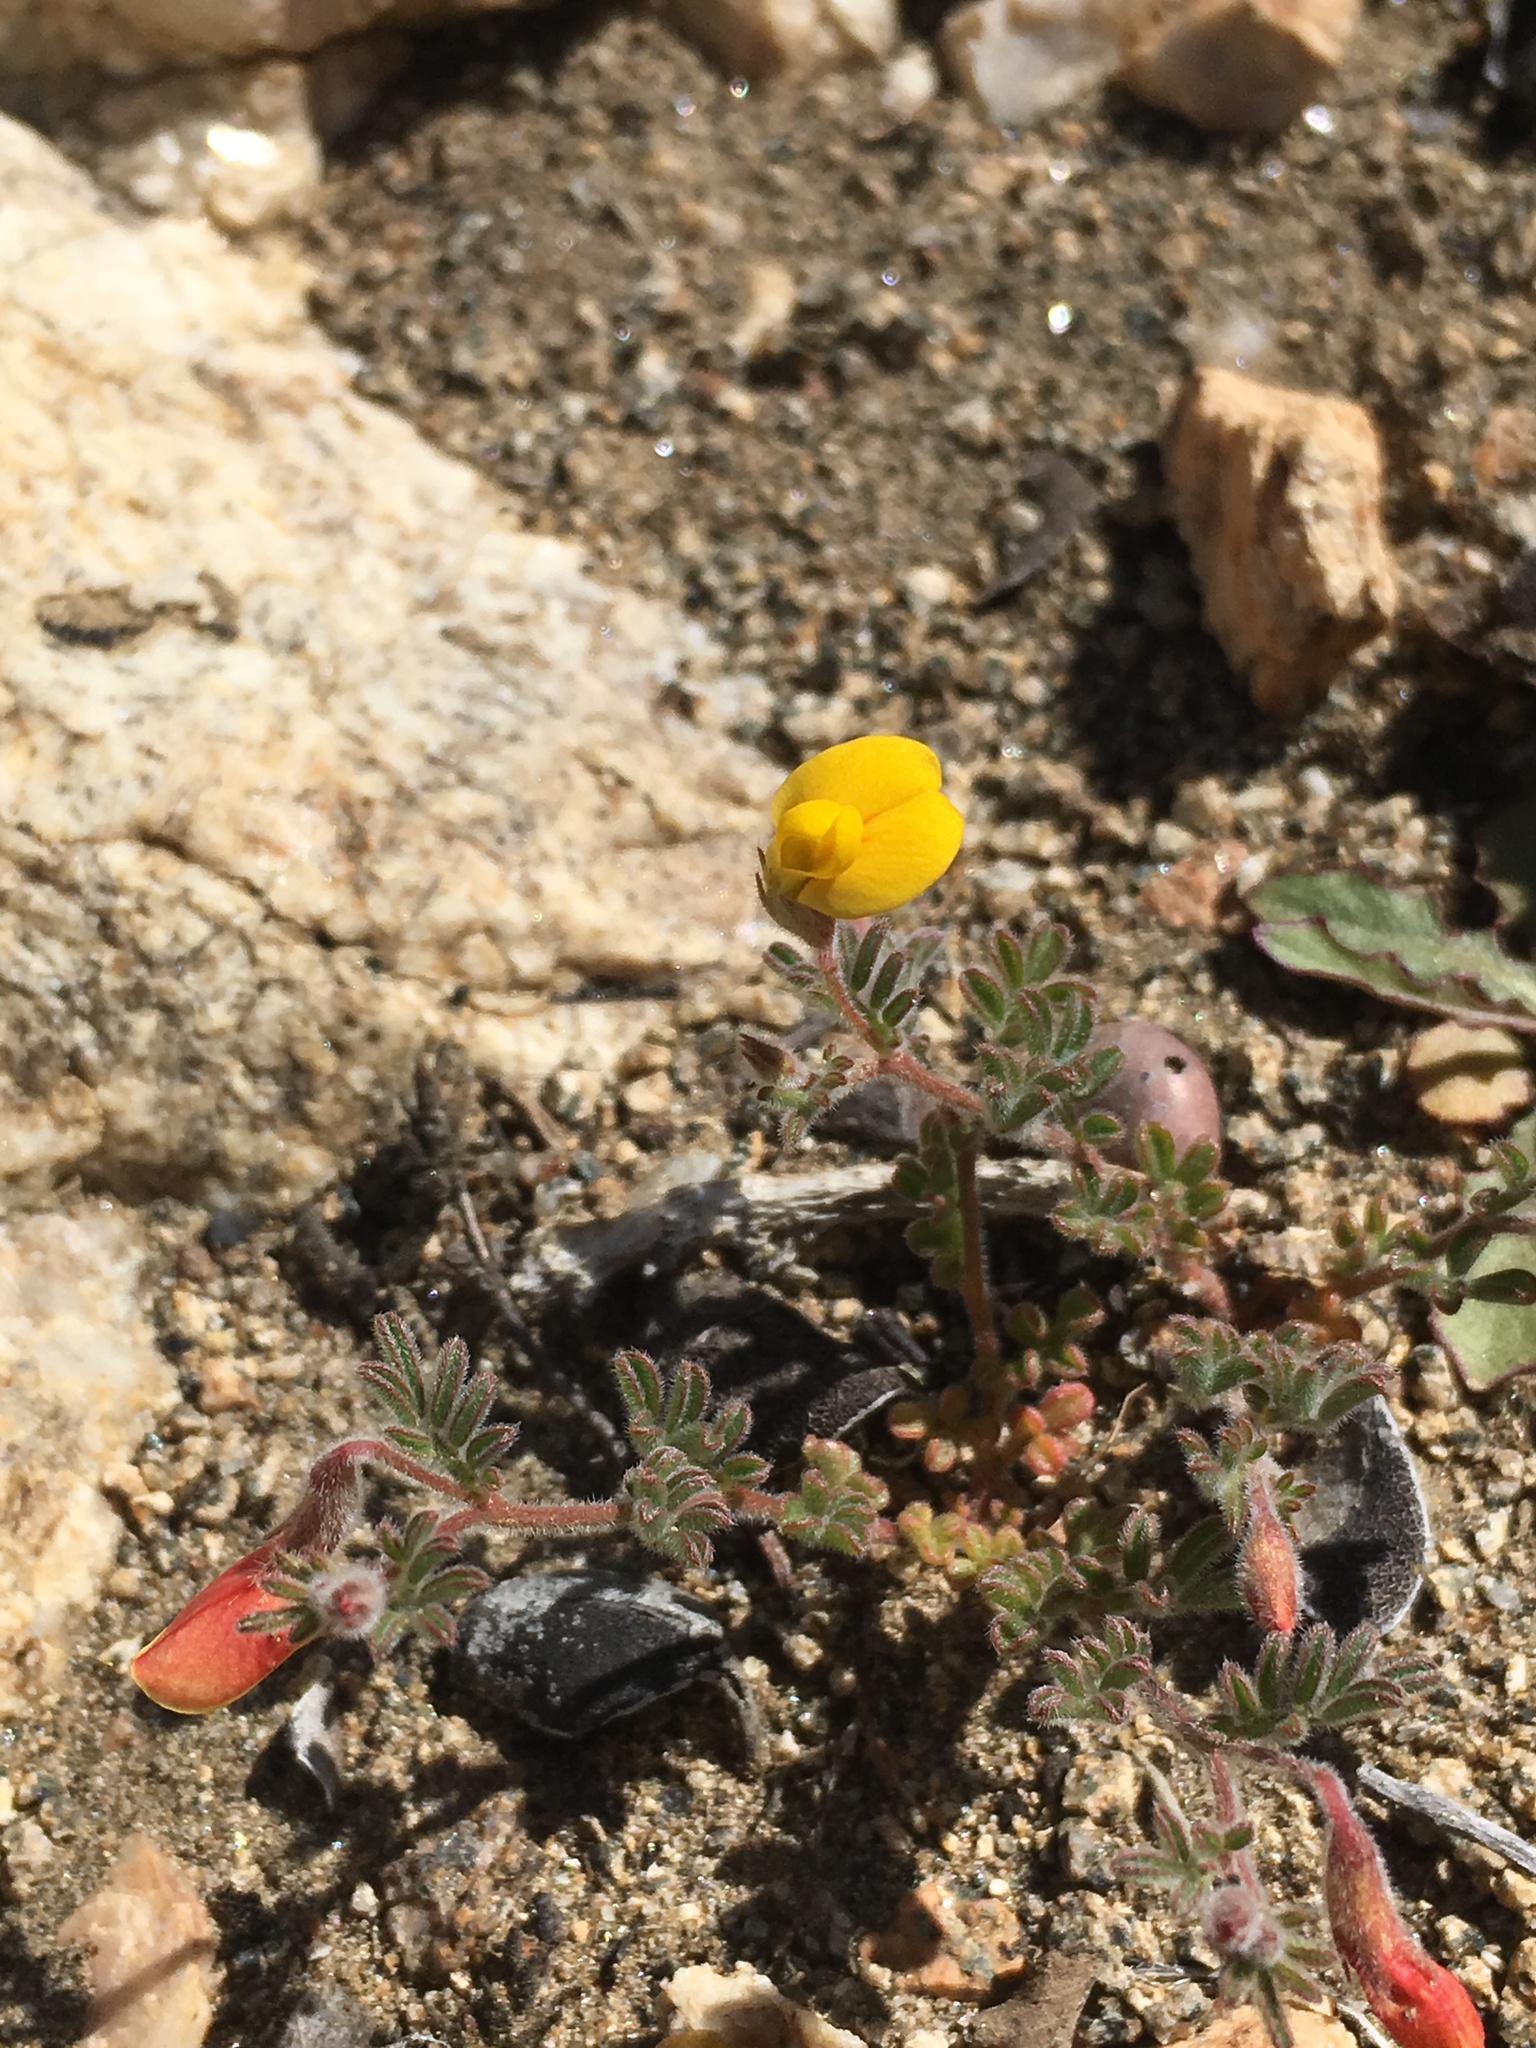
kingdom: Plantae
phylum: Tracheophyta
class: Magnoliopsida
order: Fabales
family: Fabaceae
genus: Acmispon
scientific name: Acmispon strigosus
